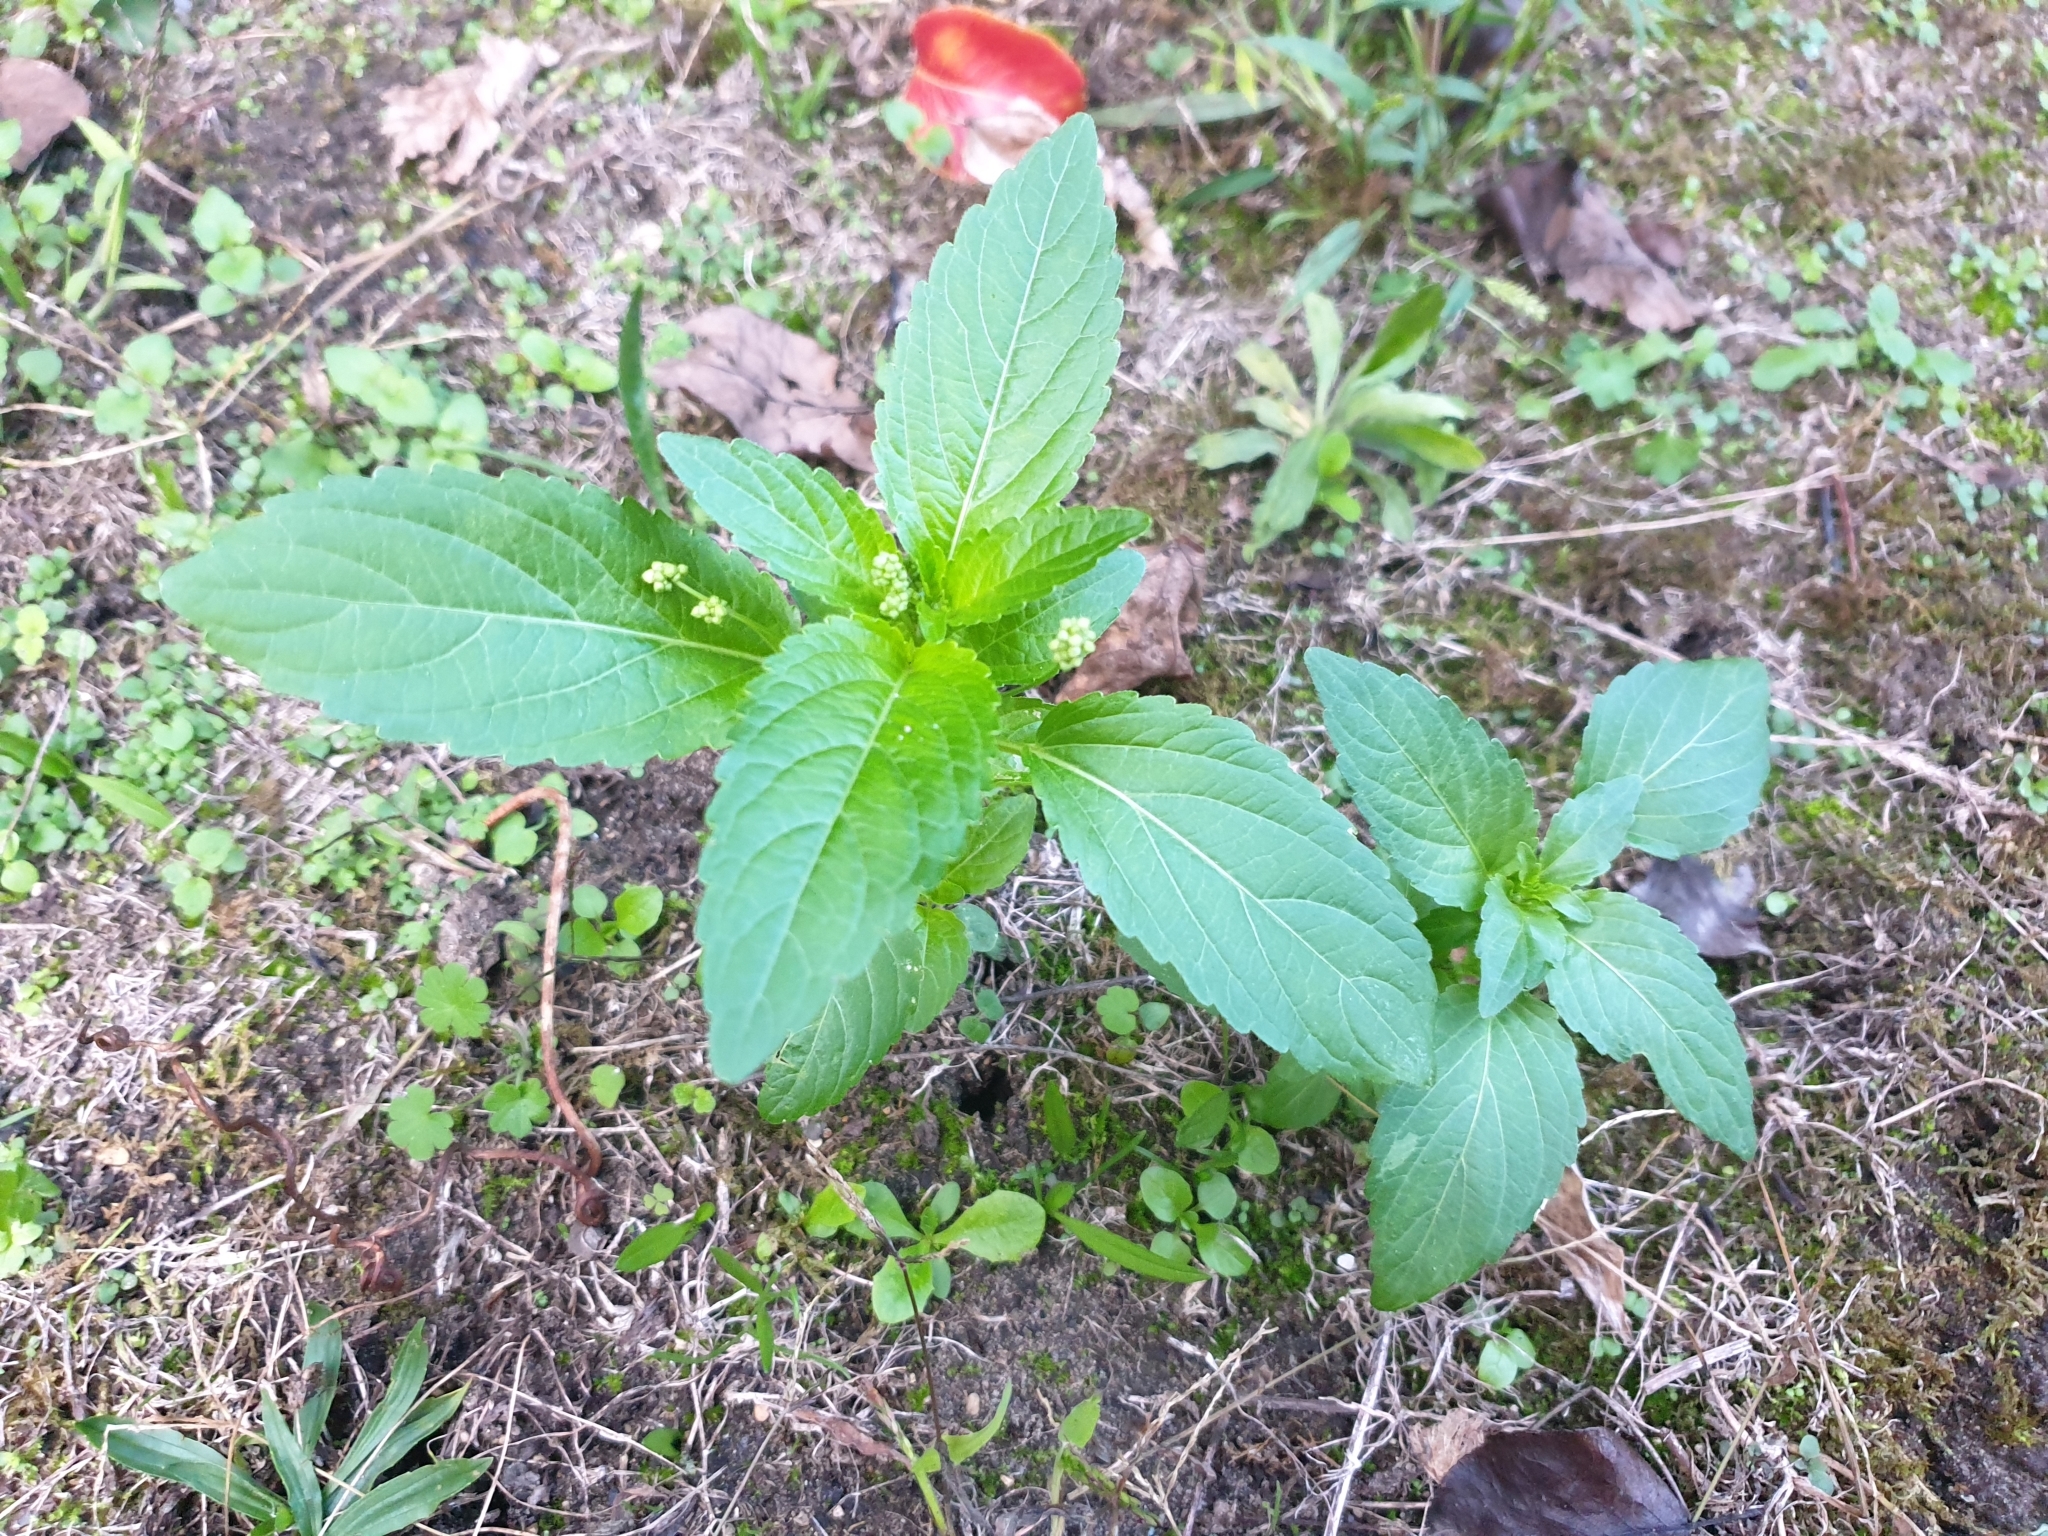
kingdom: Plantae
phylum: Tracheophyta
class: Magnoliopsida
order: Malpighiales
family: Euphorbiaceae
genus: Mercurialis
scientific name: Mercurialis annua
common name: Annual mercury
